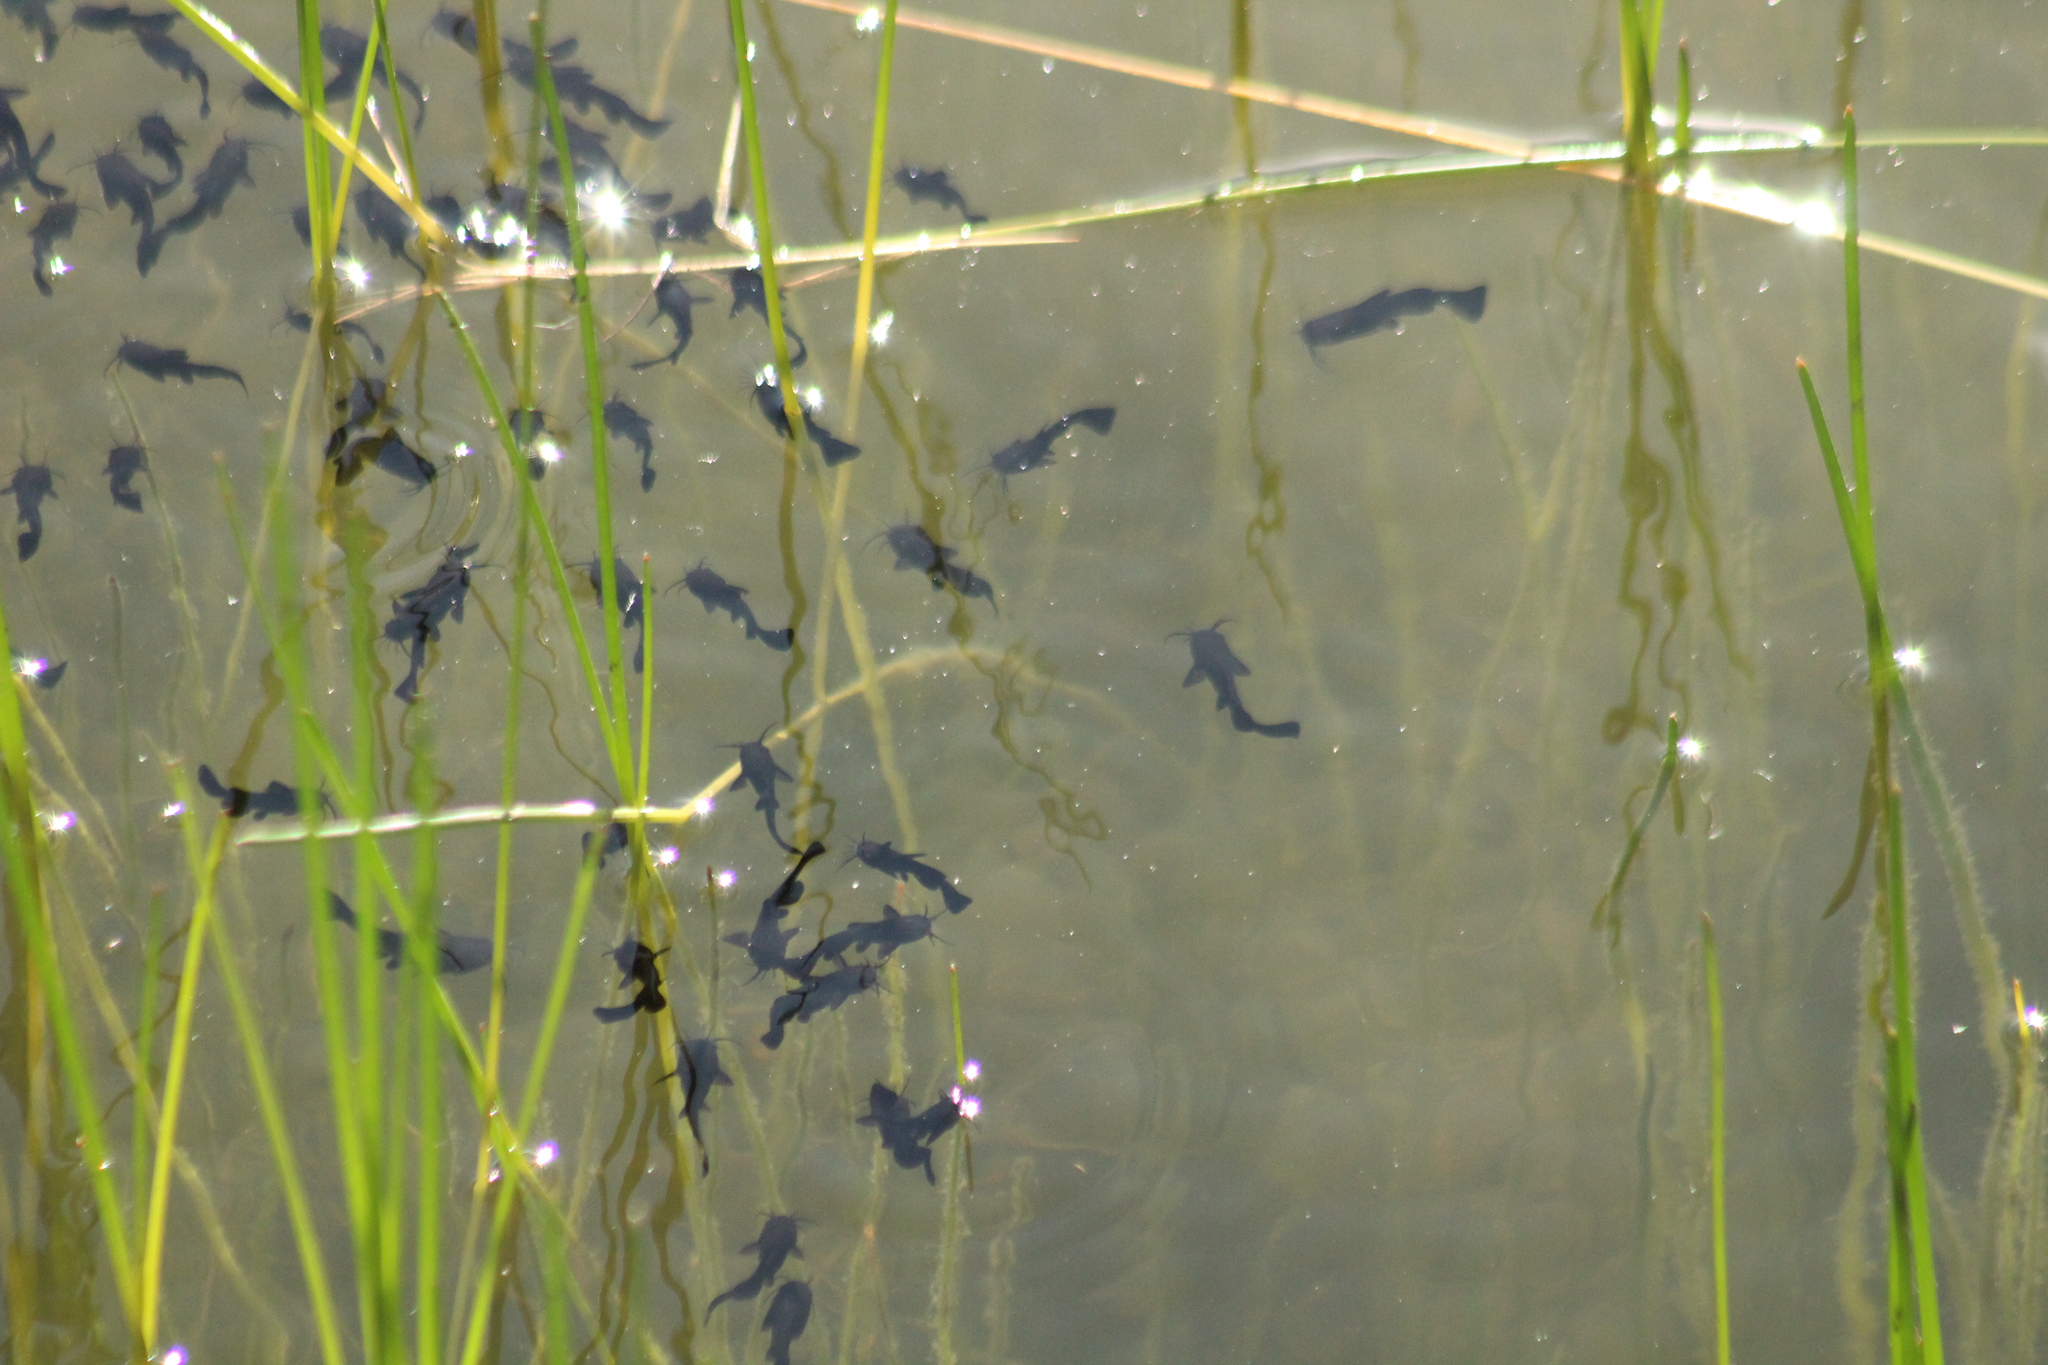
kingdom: Animalia
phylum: Chordata
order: Siluriformes
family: Ictaluridae
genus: Ameiurus
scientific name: Ameiurus melas
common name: Black bullhead
